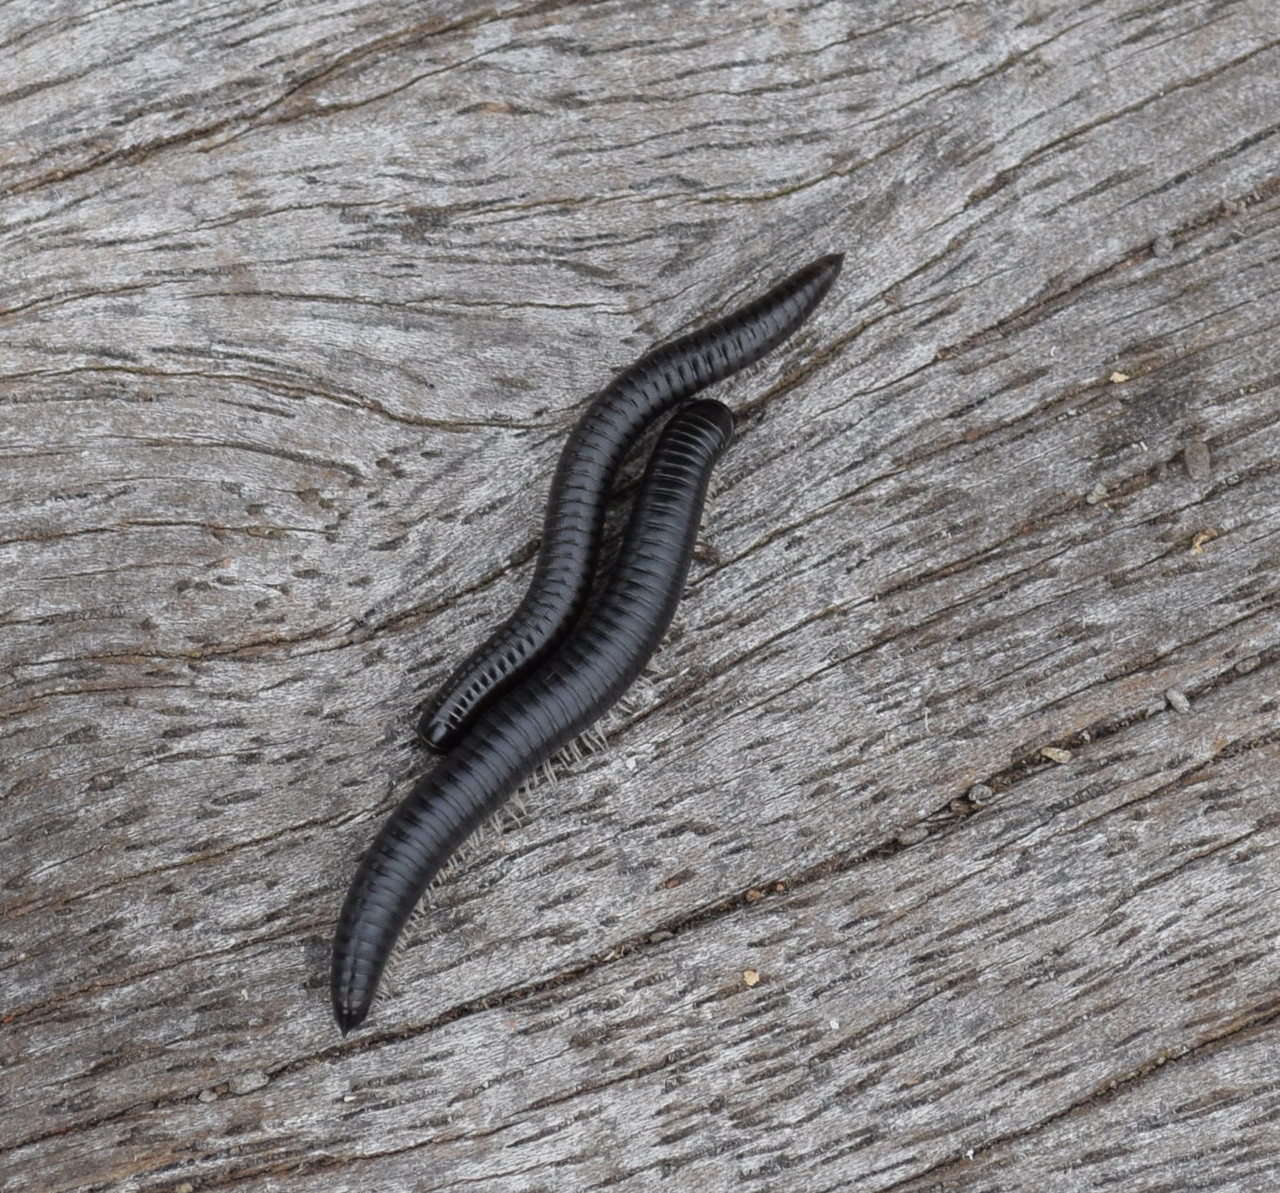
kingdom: Animalia
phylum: Arthropoda
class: Diplopoda
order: Julida
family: Julidae
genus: Ommatoiulus
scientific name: Ommatoiulus moreleti
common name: Portuguese millipede
